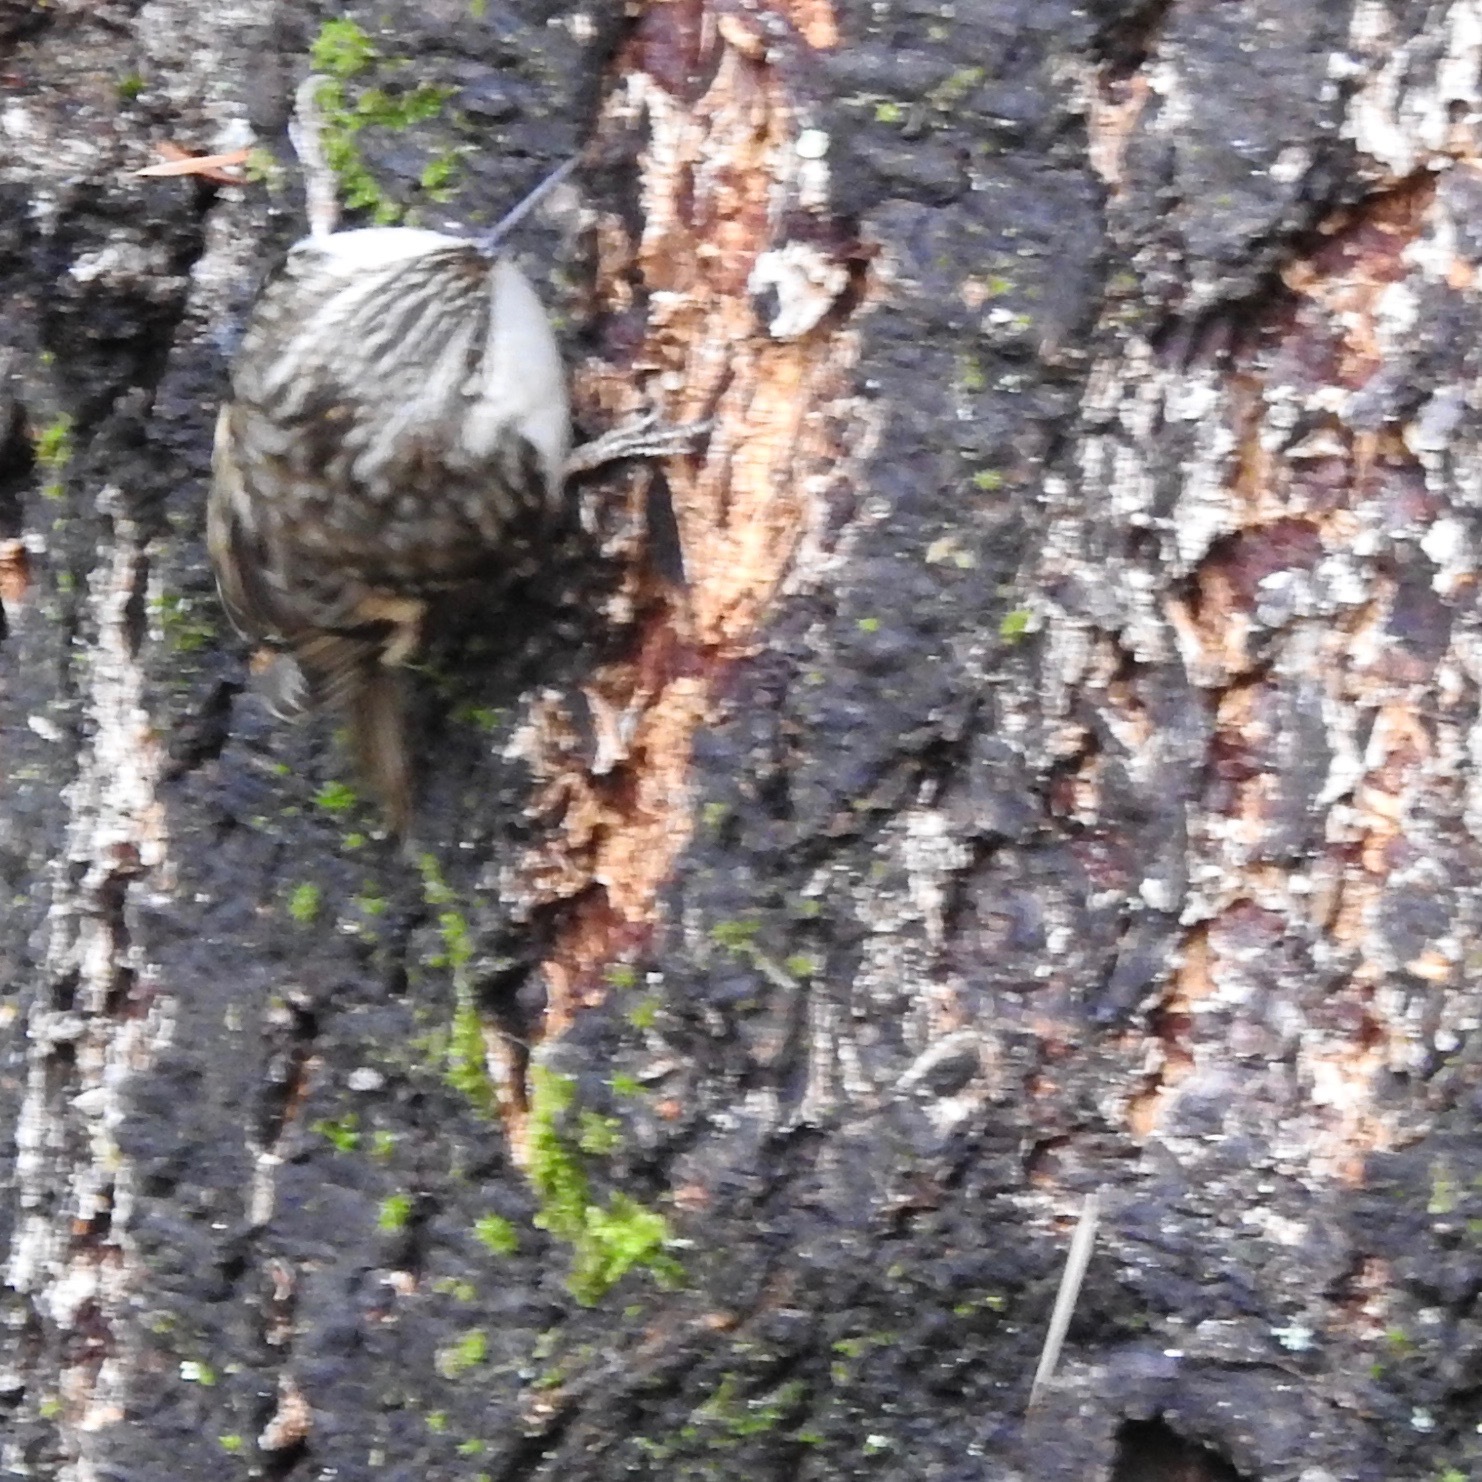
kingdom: Animalia
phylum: Chordata
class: Aves
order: Passeriformes
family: Certhiidae
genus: Certhia
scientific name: Certhia americana
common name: Brown creeper
